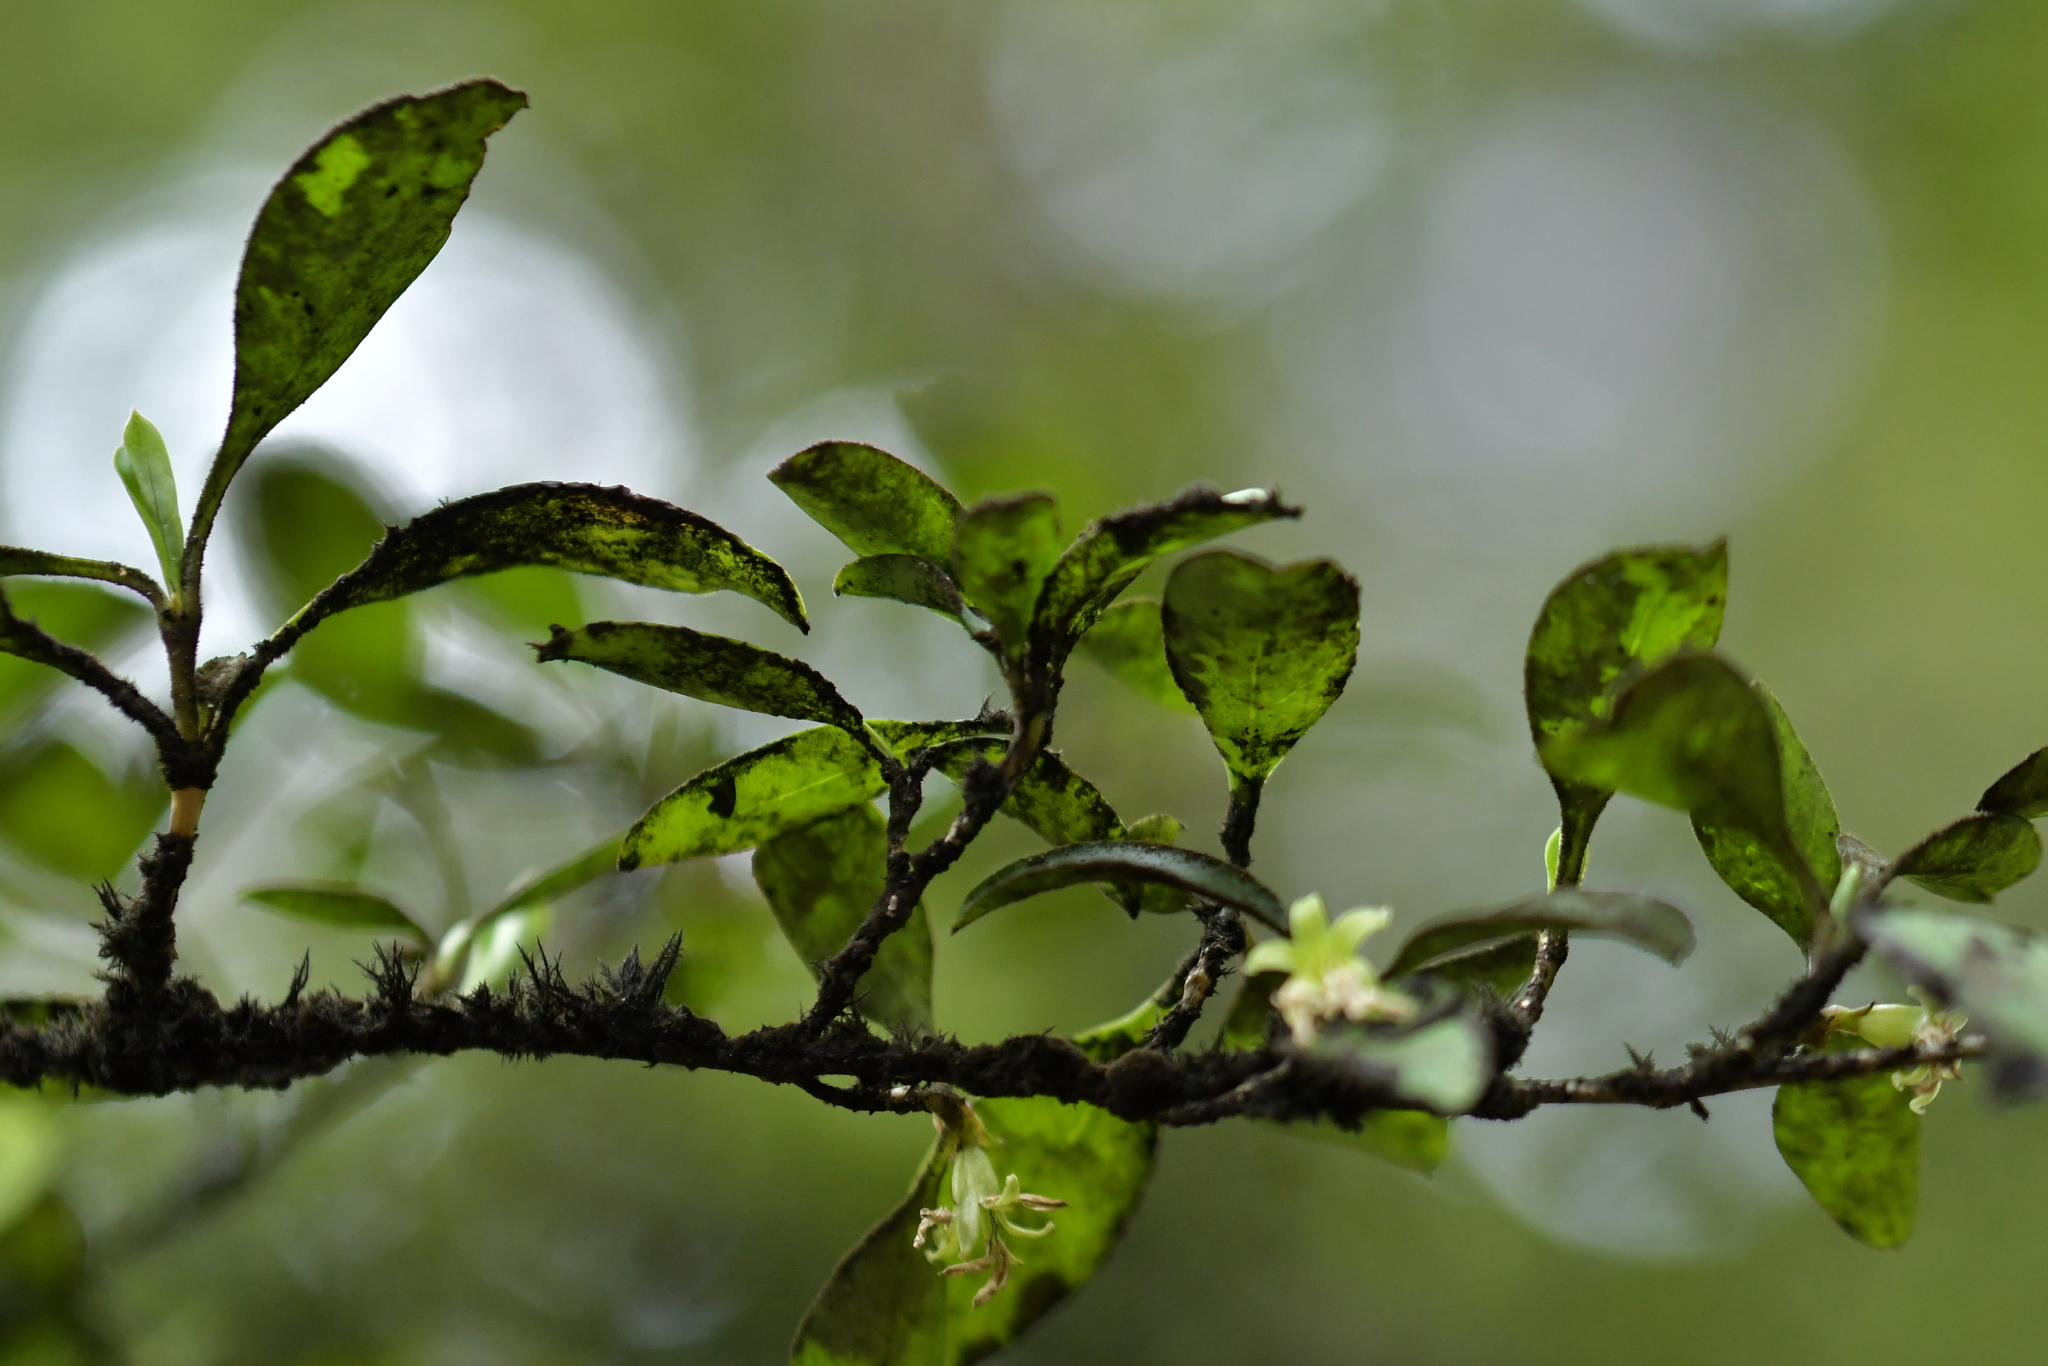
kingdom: Plantae
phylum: Tracheophyta
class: Magnoliopsida
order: Gentianales
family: Rubiaceae
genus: Coprosma
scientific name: Coprosma foetidissima
